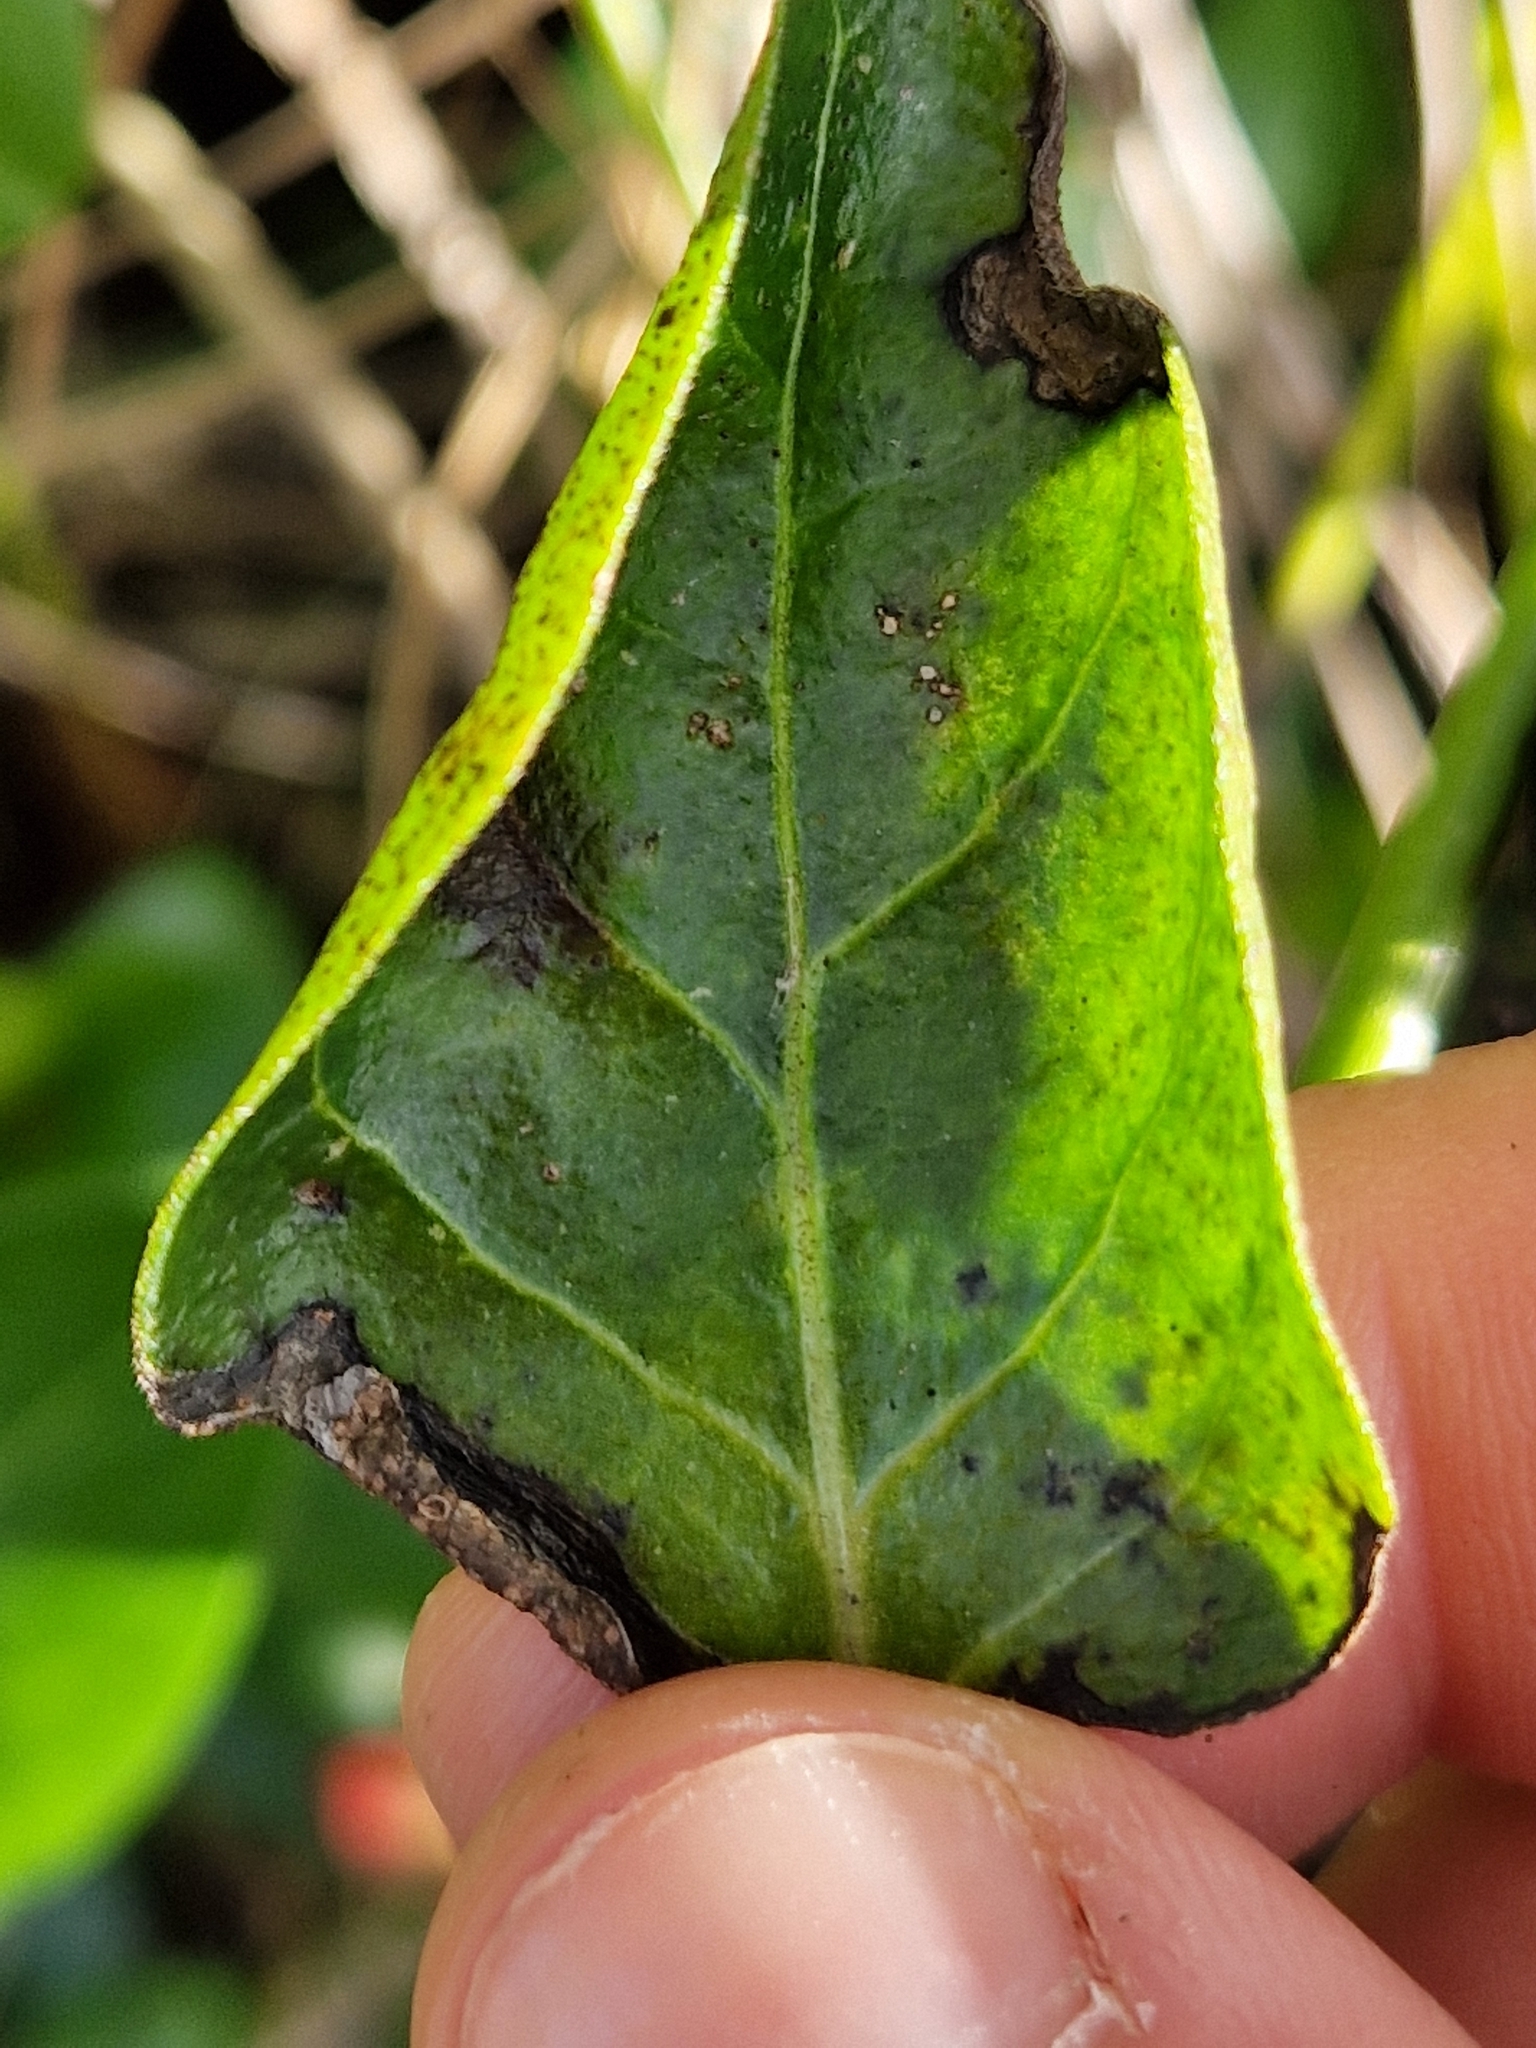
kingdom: Fungi
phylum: Basidiomycota
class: Pucciniomycetes
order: Pucciniales
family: Pucciniaceae
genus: Puccinia
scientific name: Puccinia vincae
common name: Periwinkle rust
